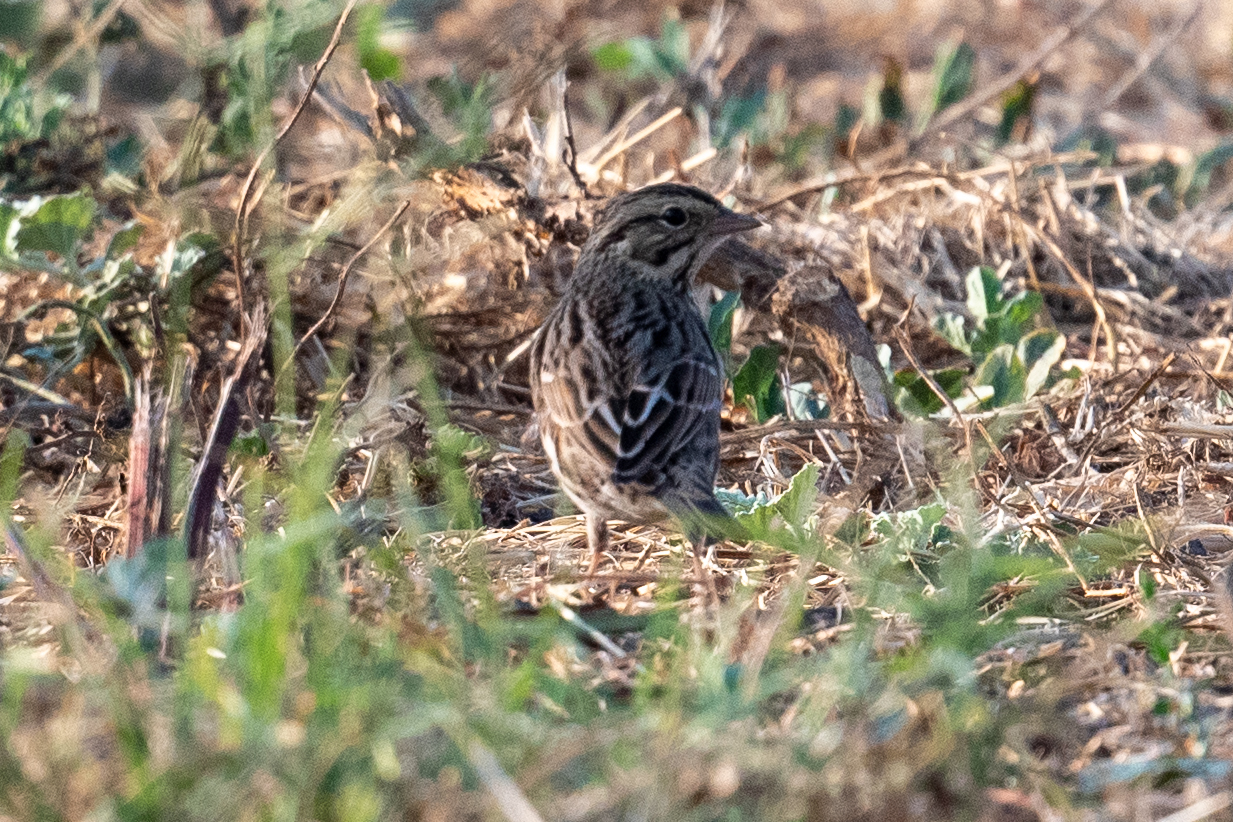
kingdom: Animalia
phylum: Chordata
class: Aves
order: Passeriformes
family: Passerellidae
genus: Passerculus
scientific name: Passerculus sandwichensis
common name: Savannah sparrow
